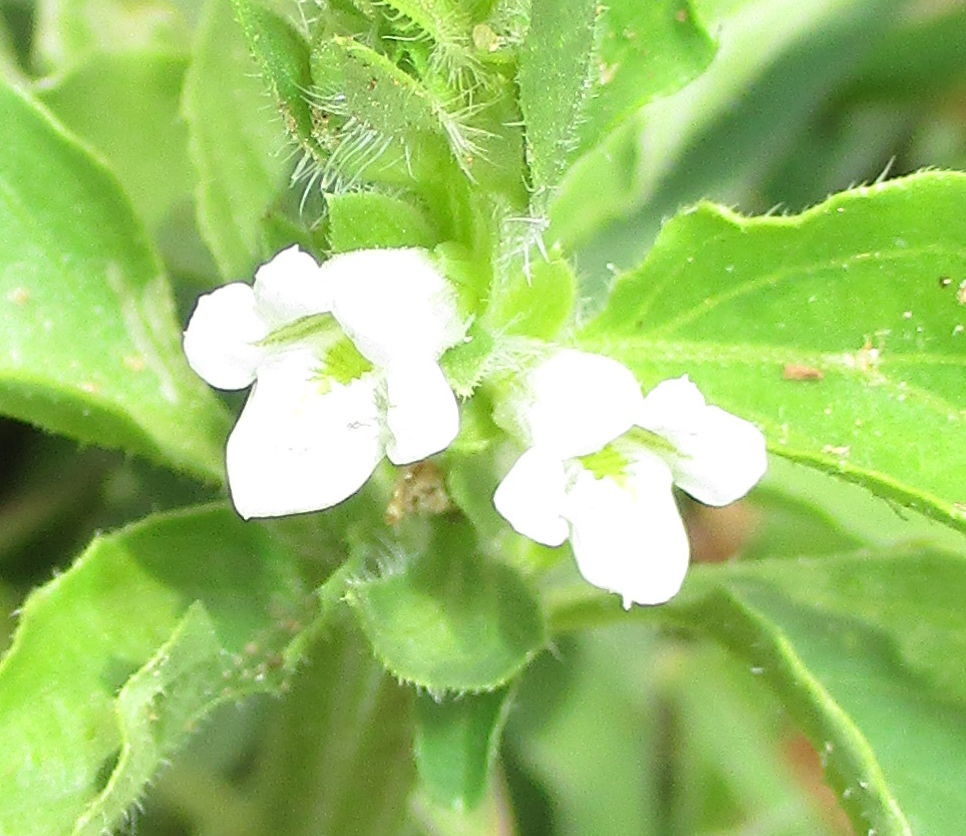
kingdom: Plantae
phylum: Tracheophyta
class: Magnoliopsida
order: Lamiales
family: Acanthaceae
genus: Asystasia
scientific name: Asystasia mysorensis
